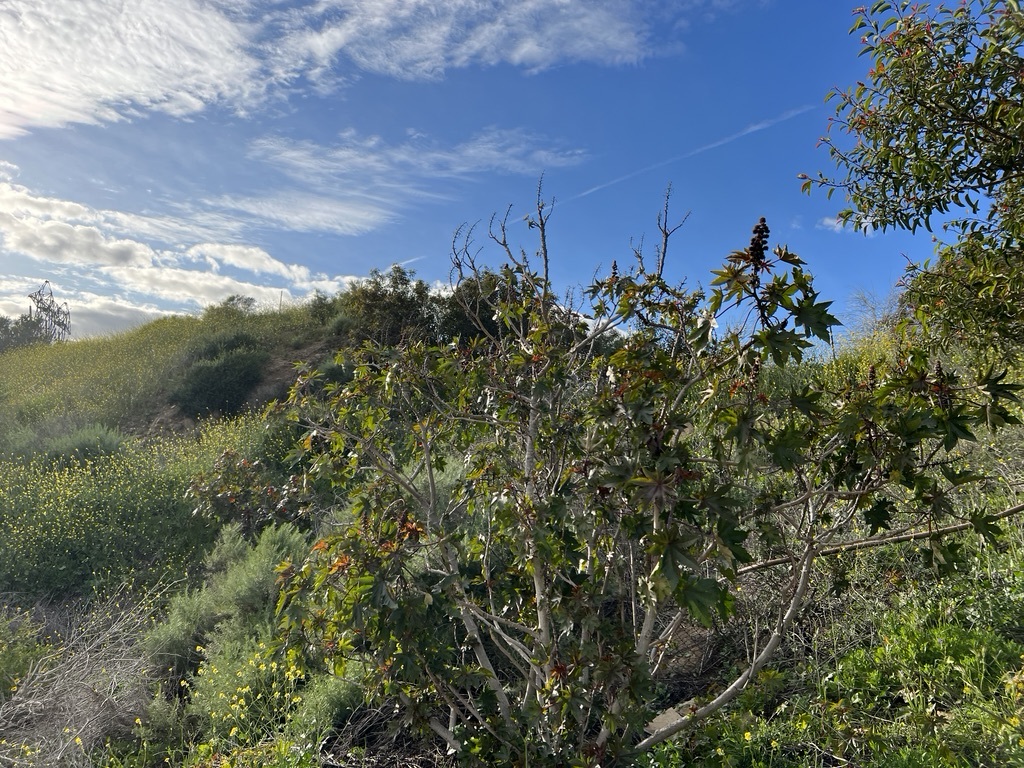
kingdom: Plantae
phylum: Tracheophyta
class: Magnoliopsida
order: Malpighiales
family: Euphorbiaceae
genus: Ricinus
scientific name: Ricinus communis
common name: Castor-oil-plant
